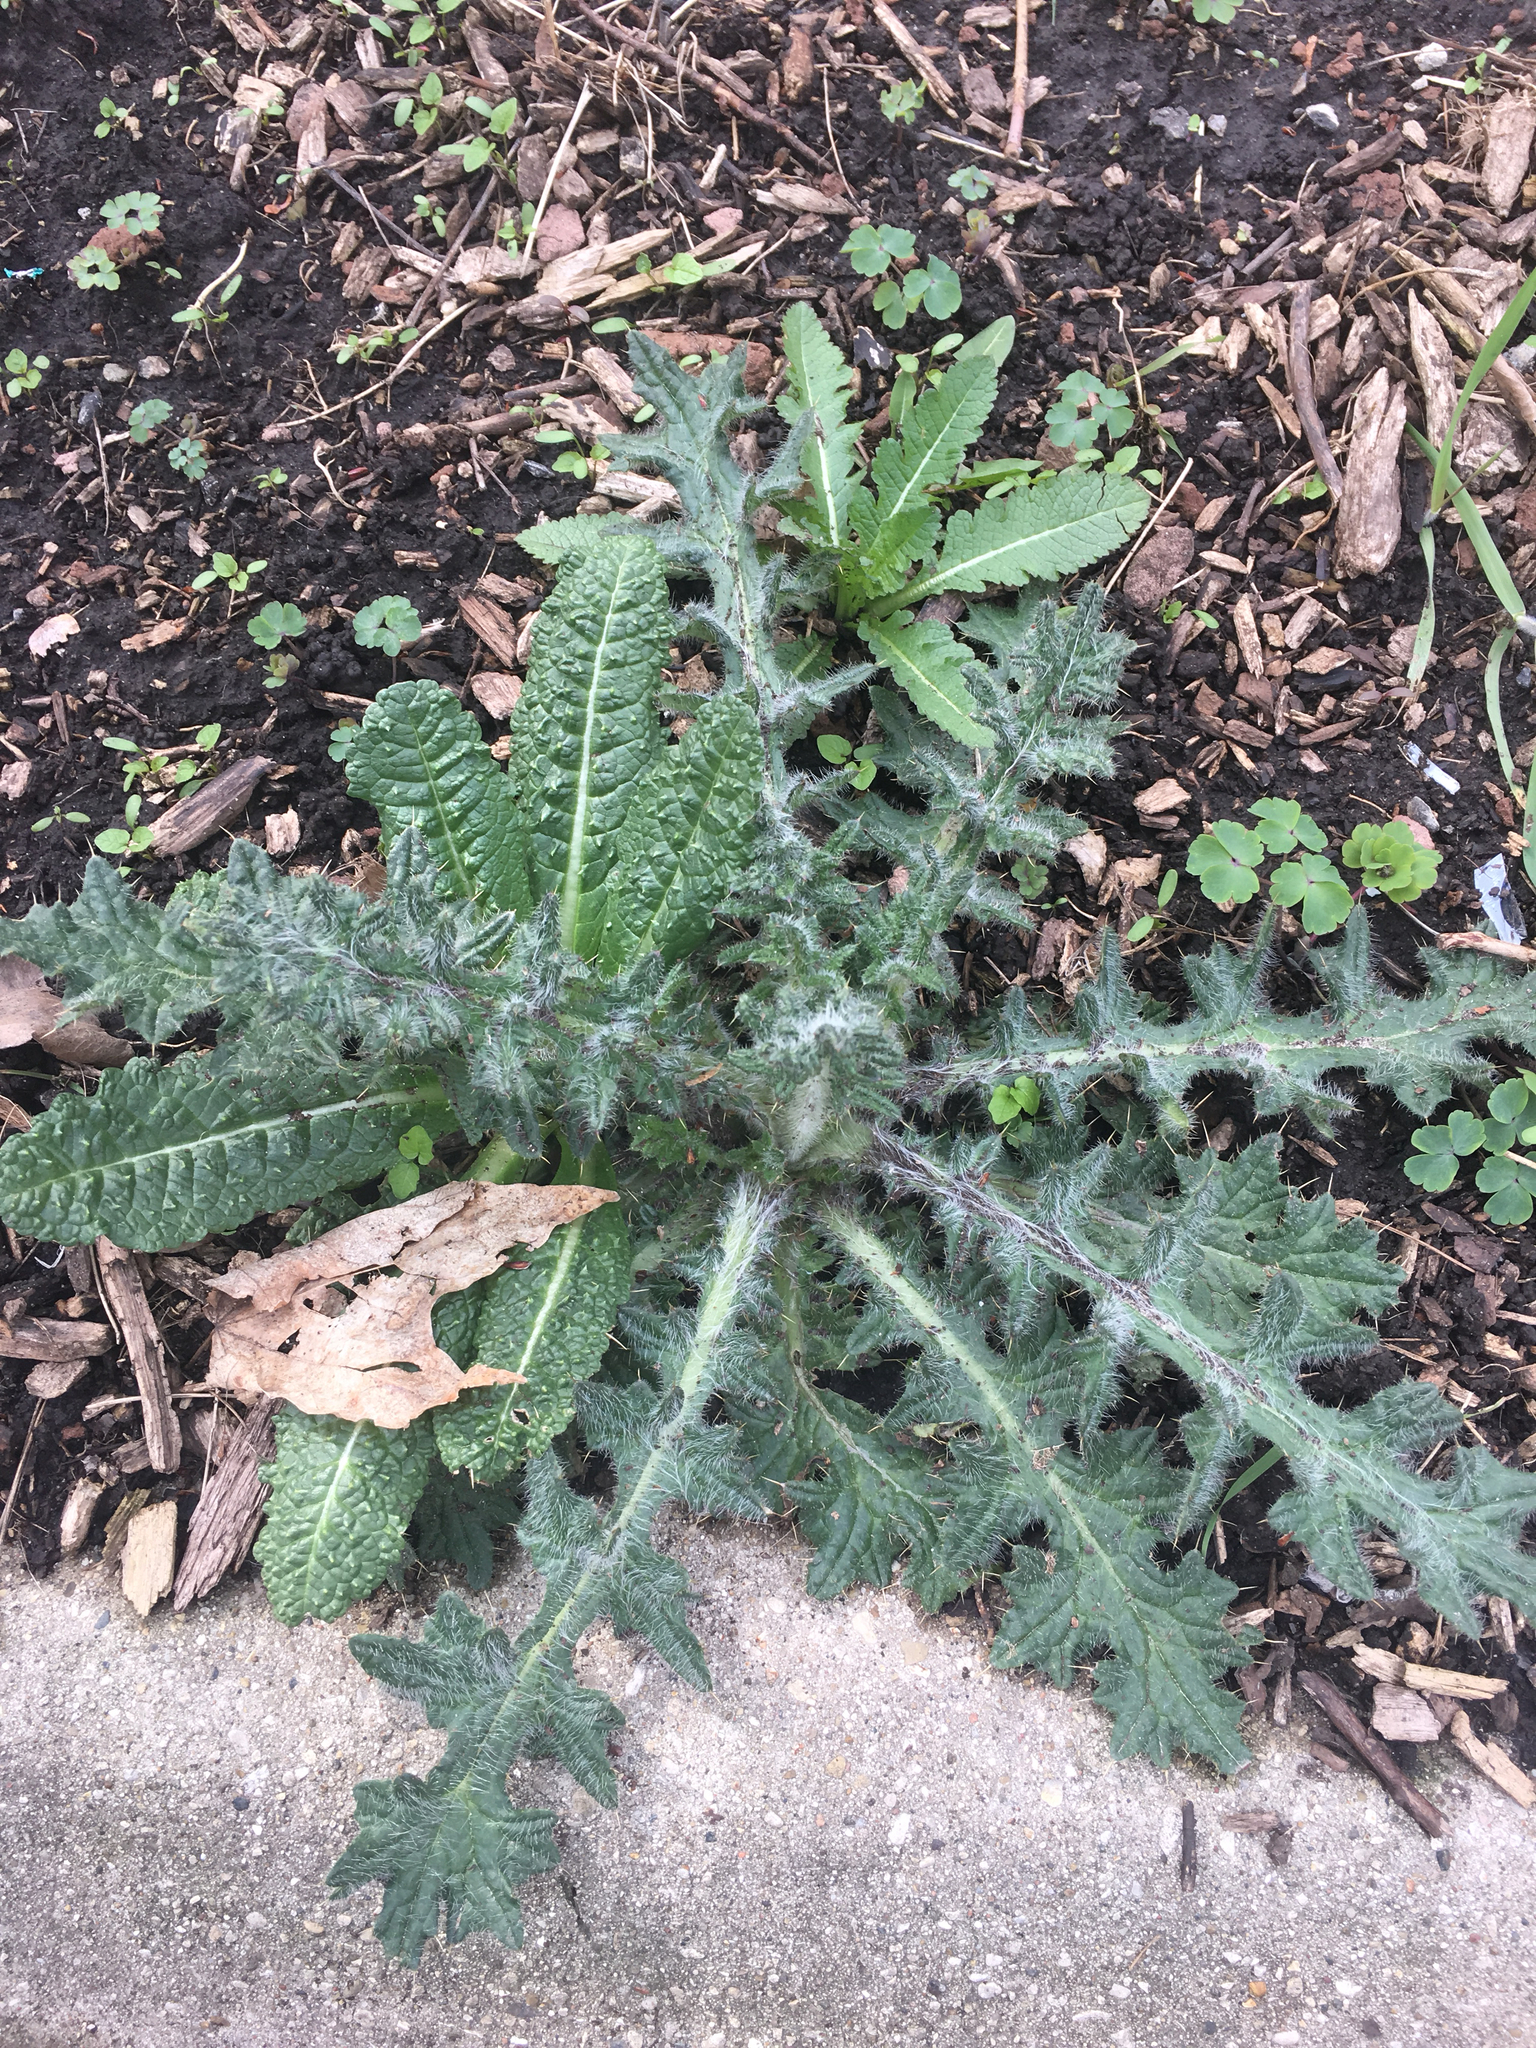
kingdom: Plantae
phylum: Tracheophyta
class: Magnoliopsida
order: Asterales
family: Asteraceae
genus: Cirsium
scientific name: Cirsium vulgare
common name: Bull thistle
